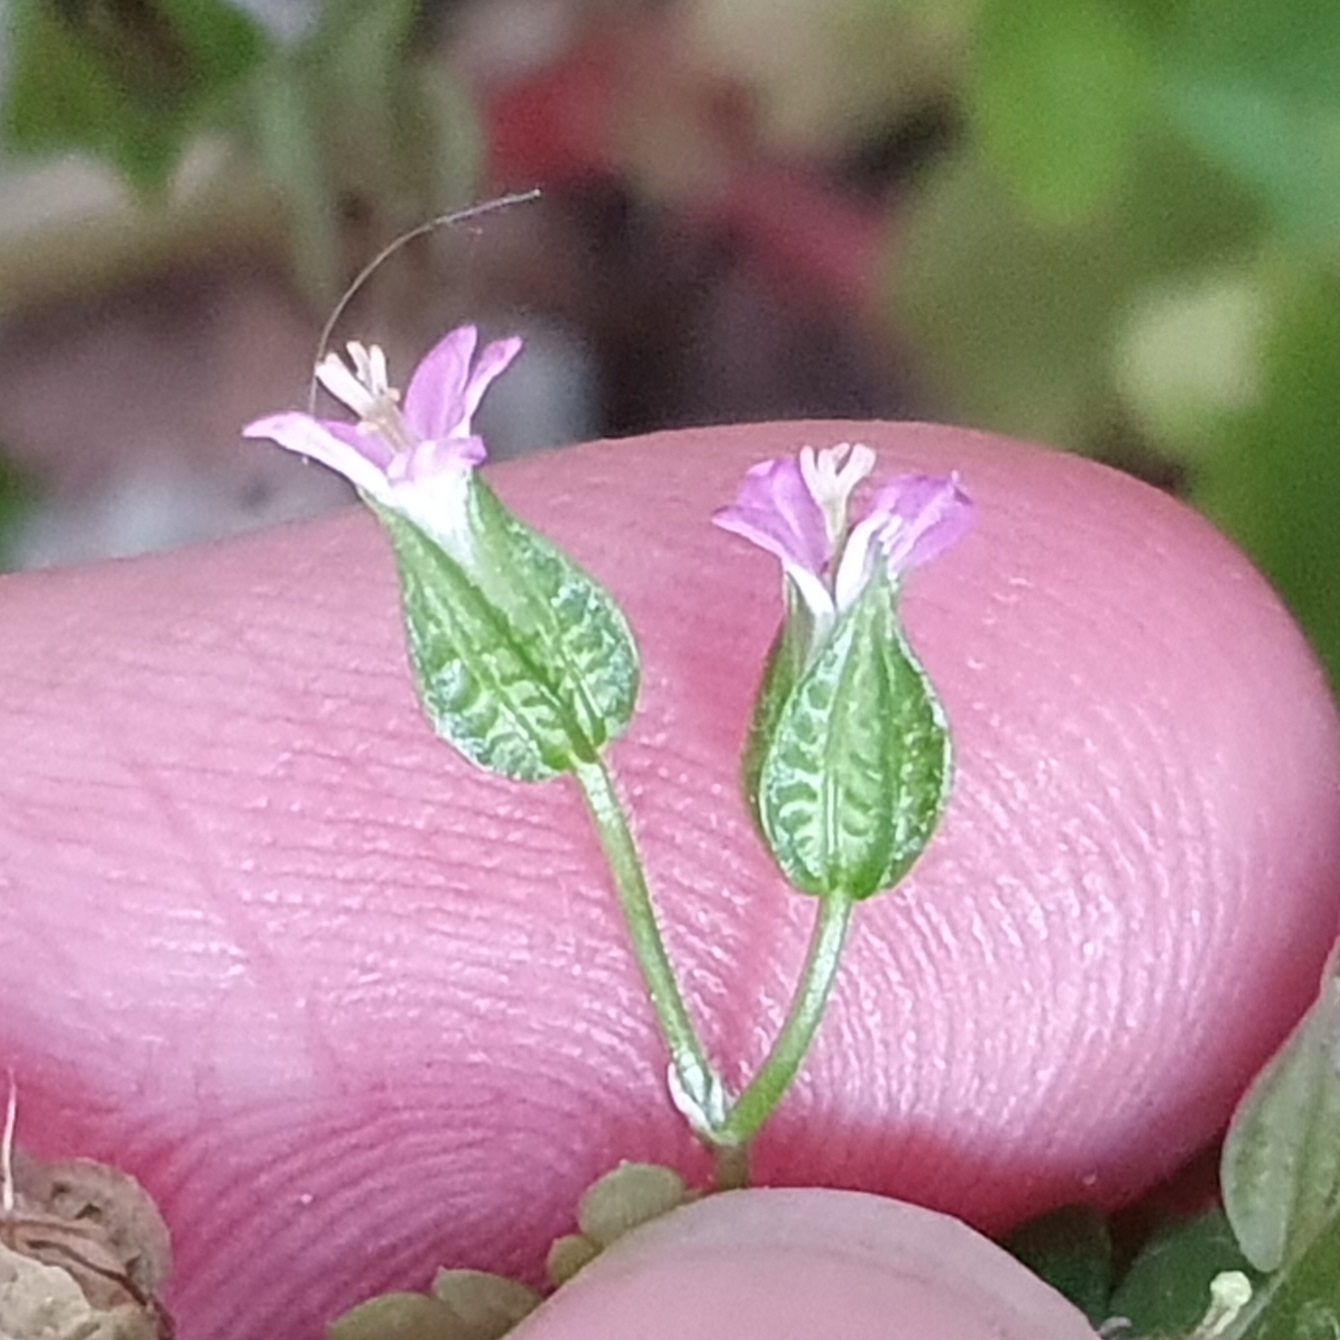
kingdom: Plantae
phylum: Tracheophyta
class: Magnoliopsida
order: Geraniales
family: Geraniaceae
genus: Geranium
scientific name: Geranium lucidum
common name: Shining crane's-bill
